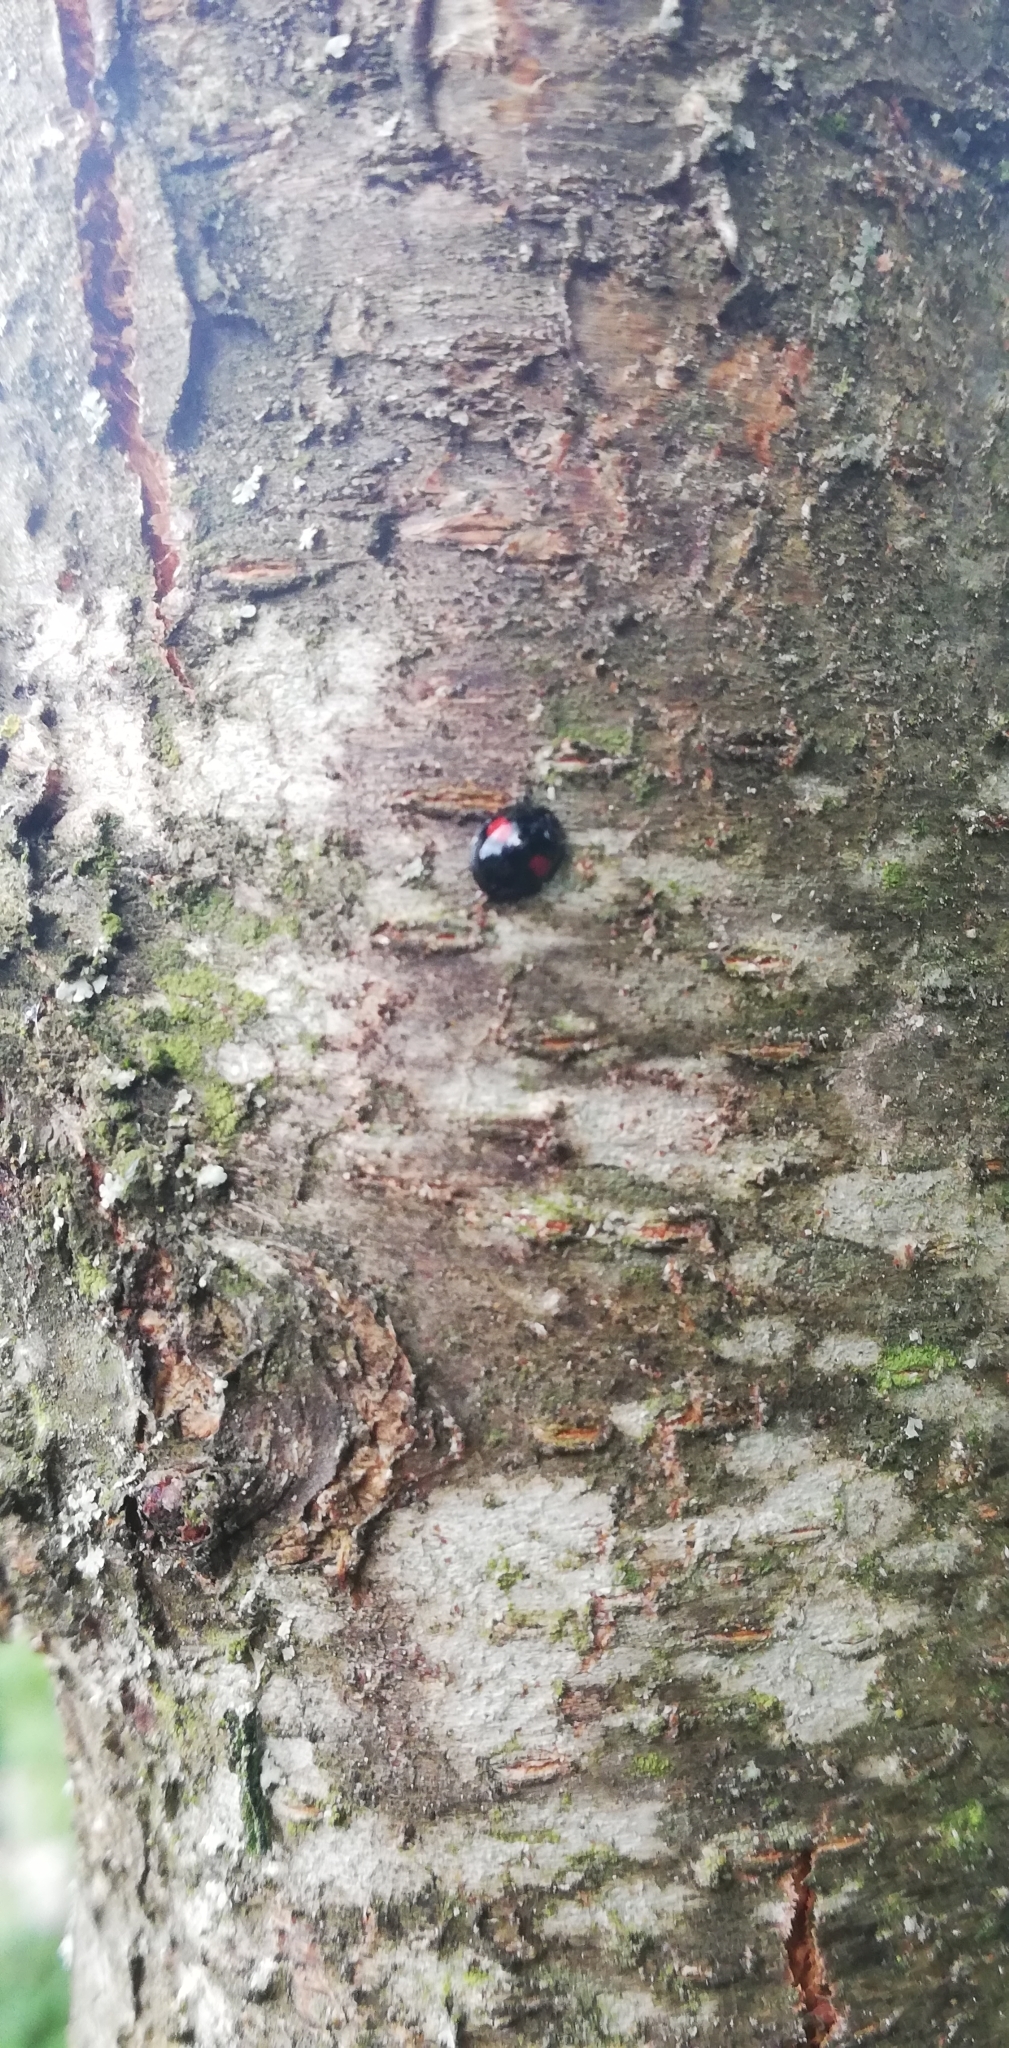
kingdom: Animalia
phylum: Arthropoda
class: Insecta
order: Coleoptera
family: Coccinellidae
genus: Chilocorus
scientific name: Chilocorus renipustulatus
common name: Kidney-spot ladybird
